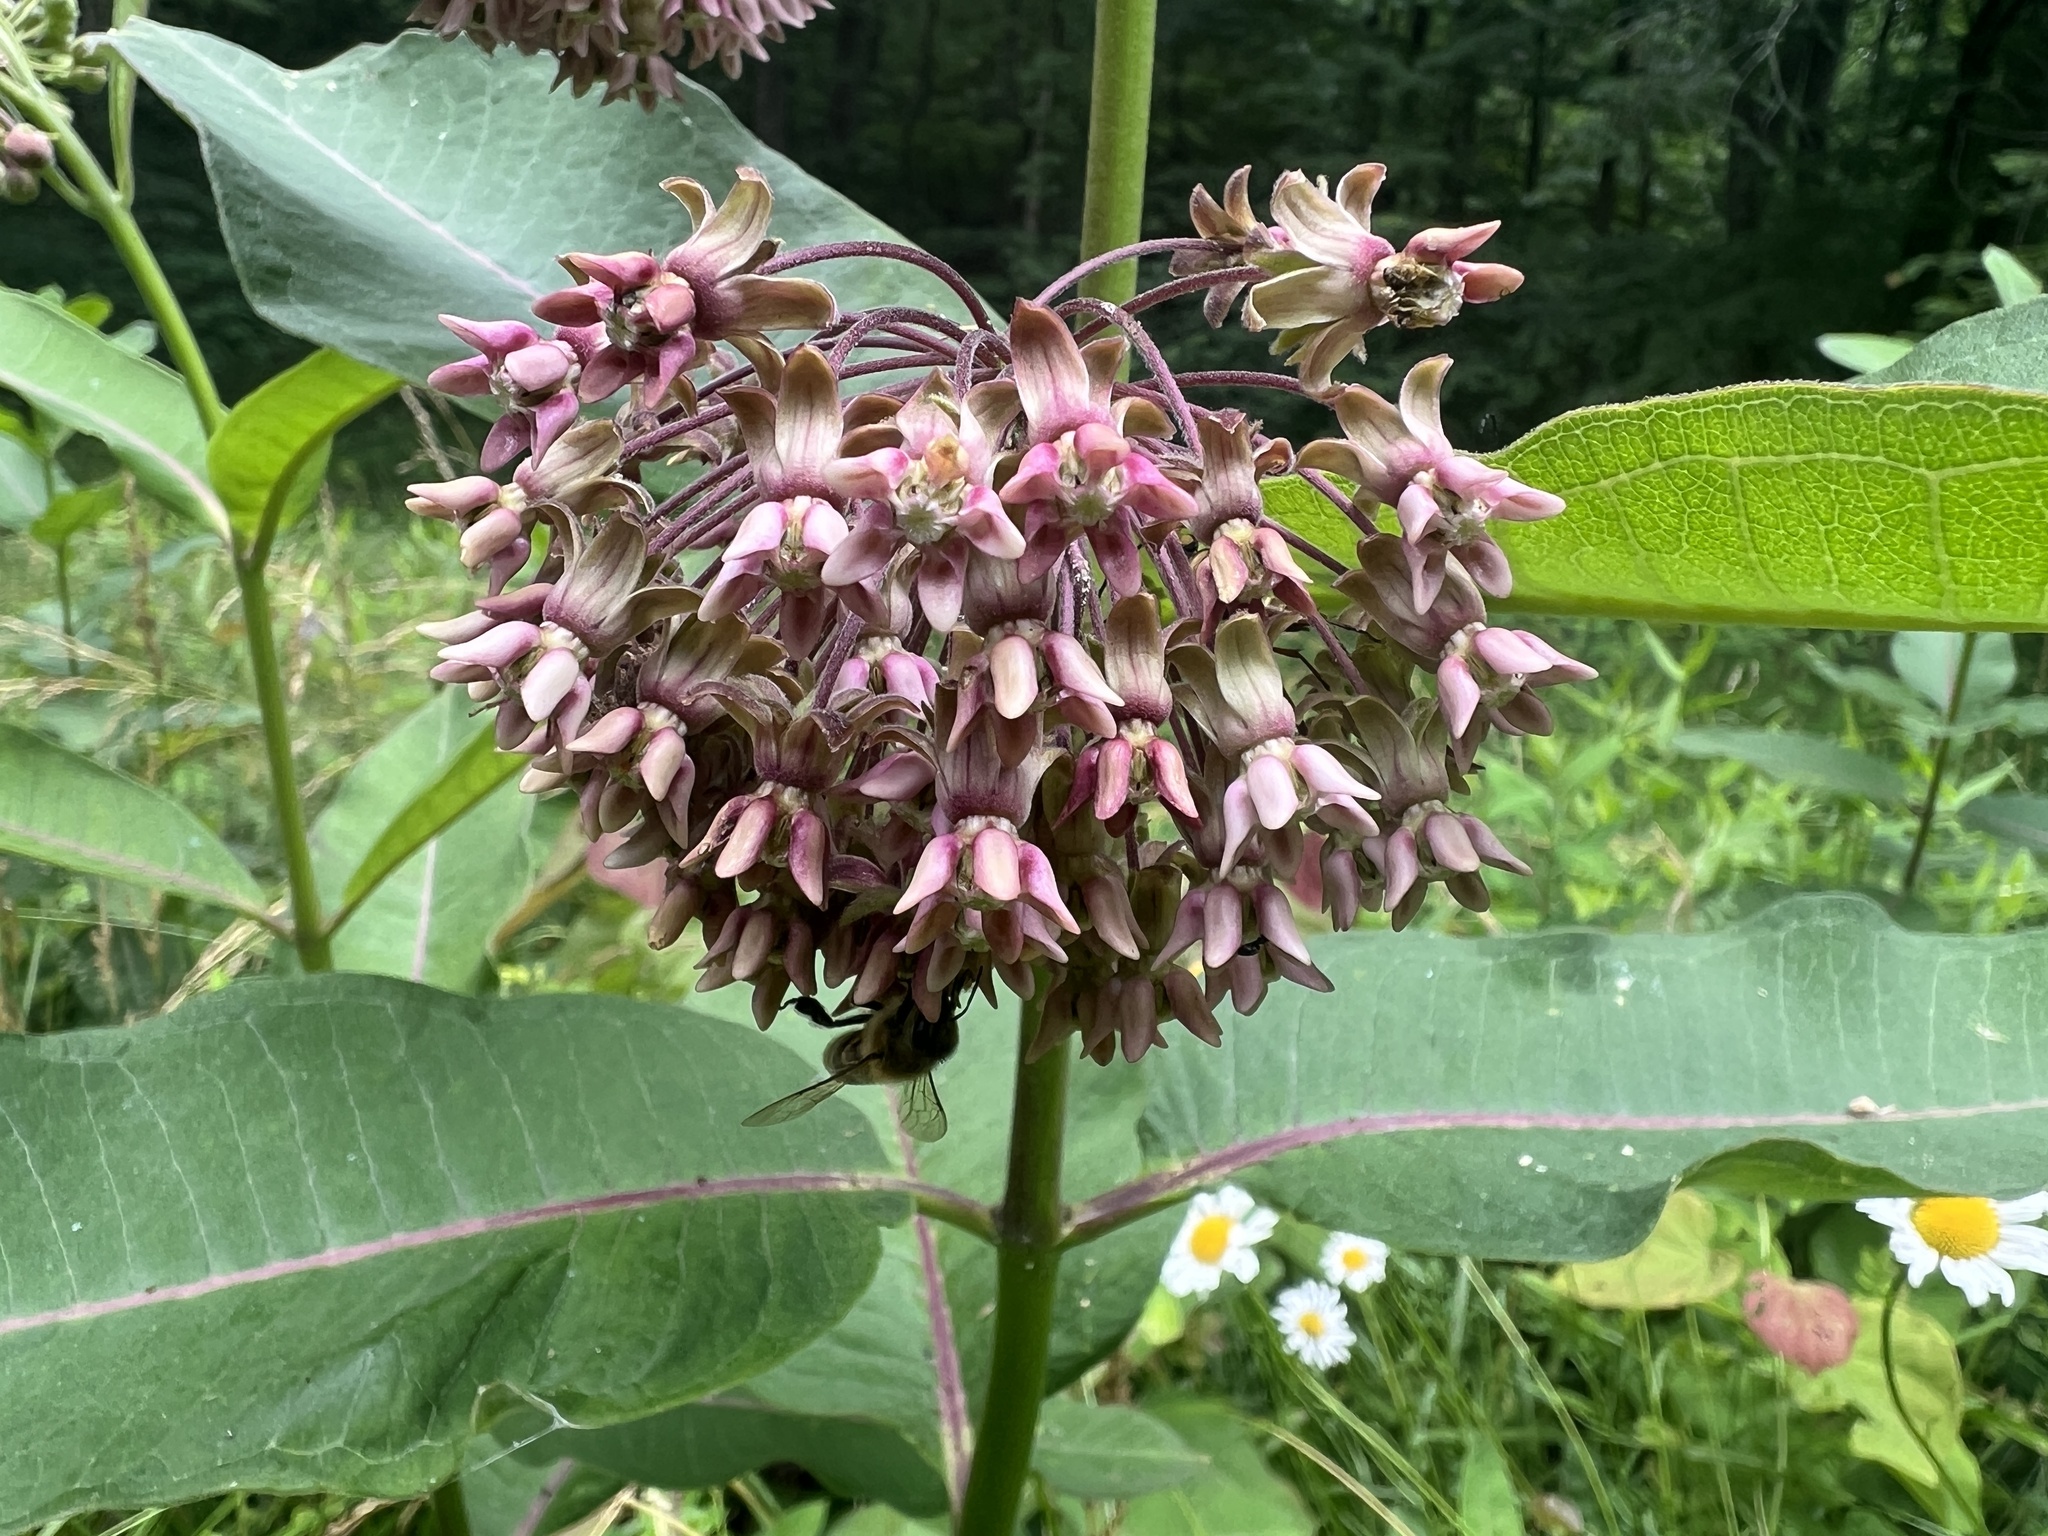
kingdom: Plantae
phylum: Tracheophyta
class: Magnoliopsida
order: Gentianales
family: Apocynaceae
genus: Asclepias
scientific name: Asclepias syriaca
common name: Common milkweed
